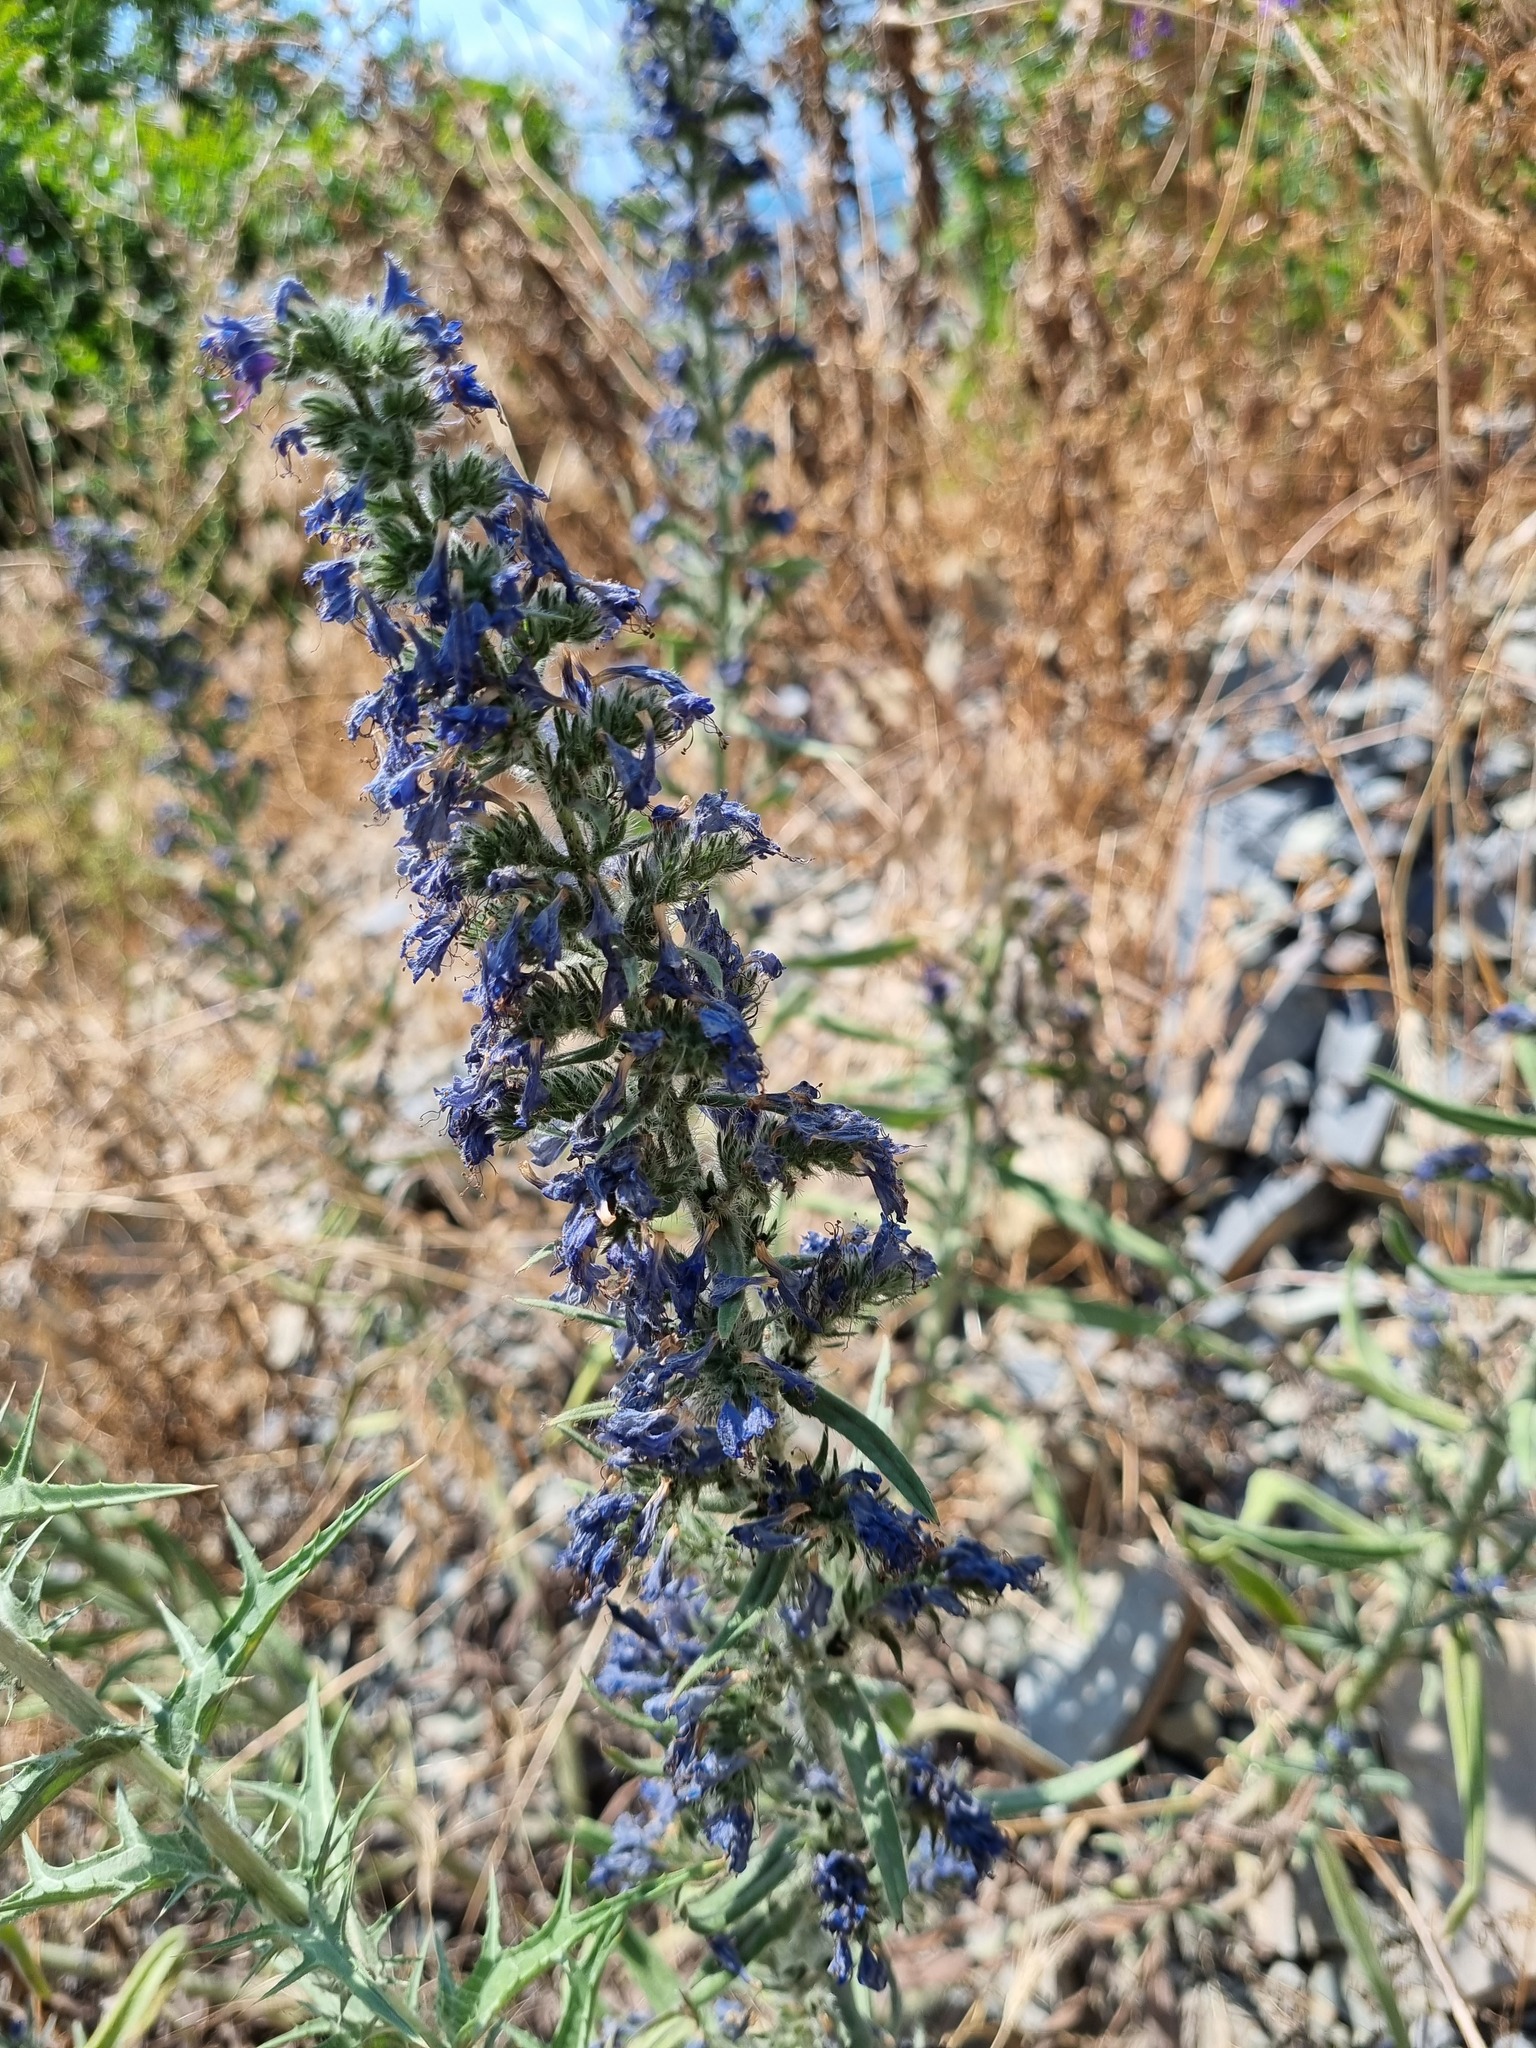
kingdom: Plantae
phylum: Tracheophyta
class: Magnoliopsida
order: Boraginales
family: Boraginaceae
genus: Echium
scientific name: Echium vulgare
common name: Common viper's bugloss
